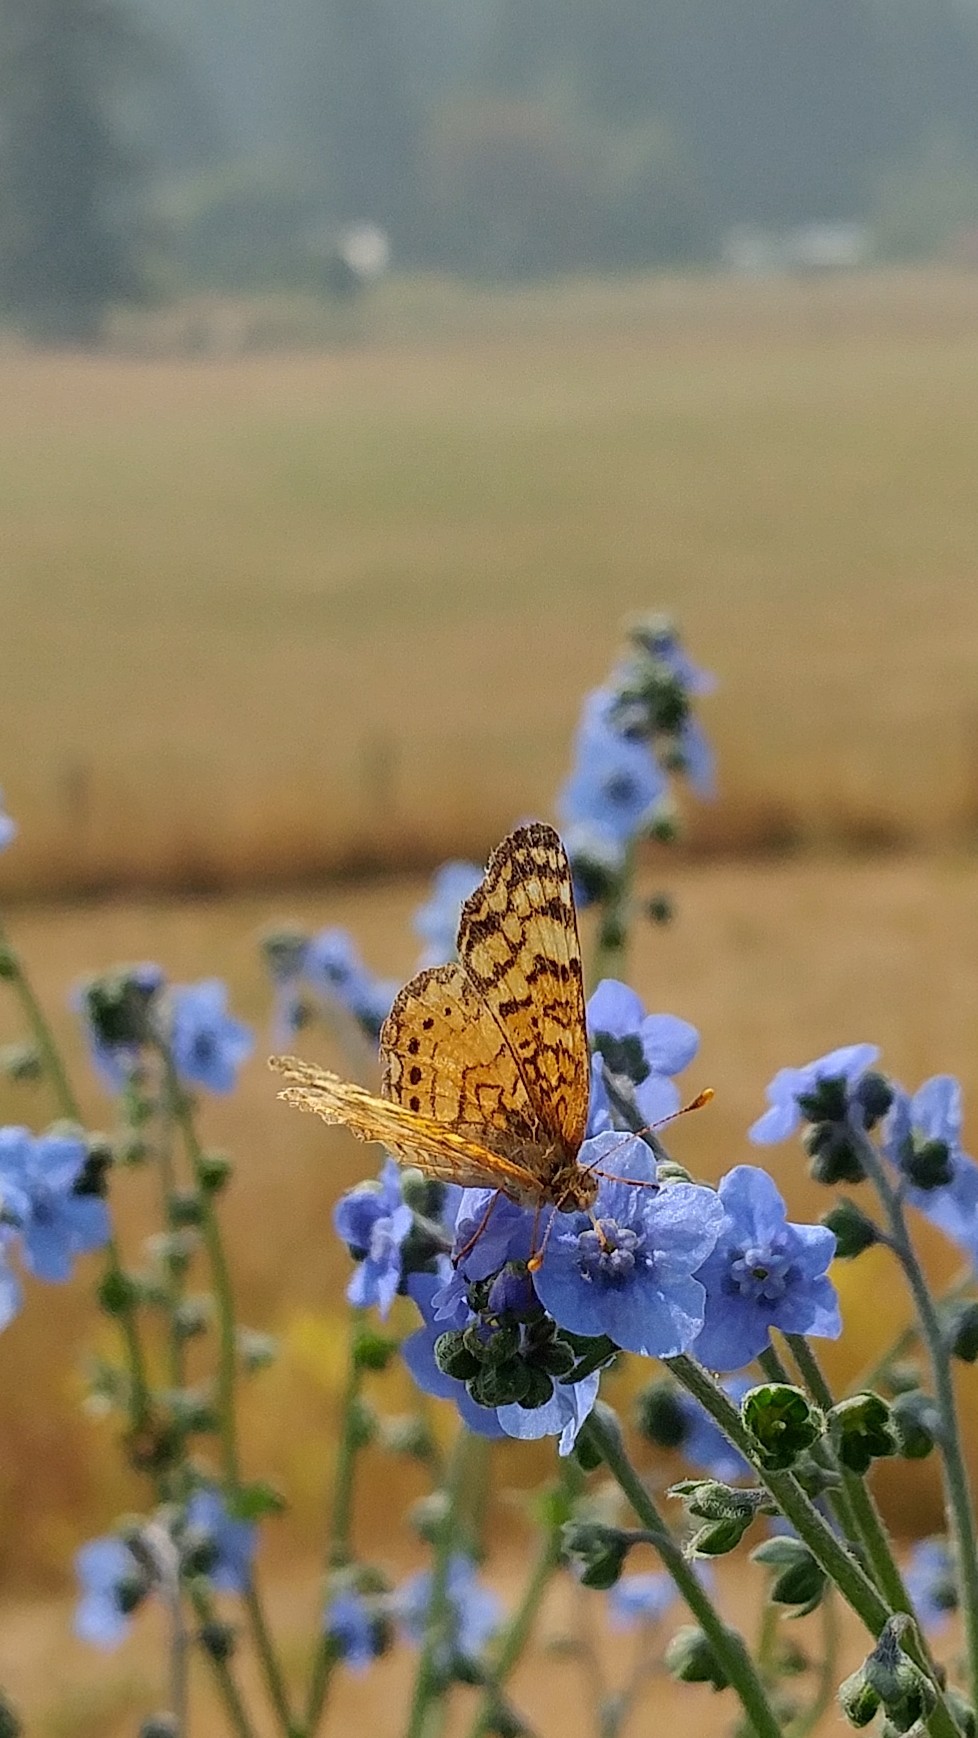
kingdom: Animalia
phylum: Arthropoda
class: Insecta
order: Lepidoptera
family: Nymphalidae
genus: Eresia
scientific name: Eresia aveyrona
